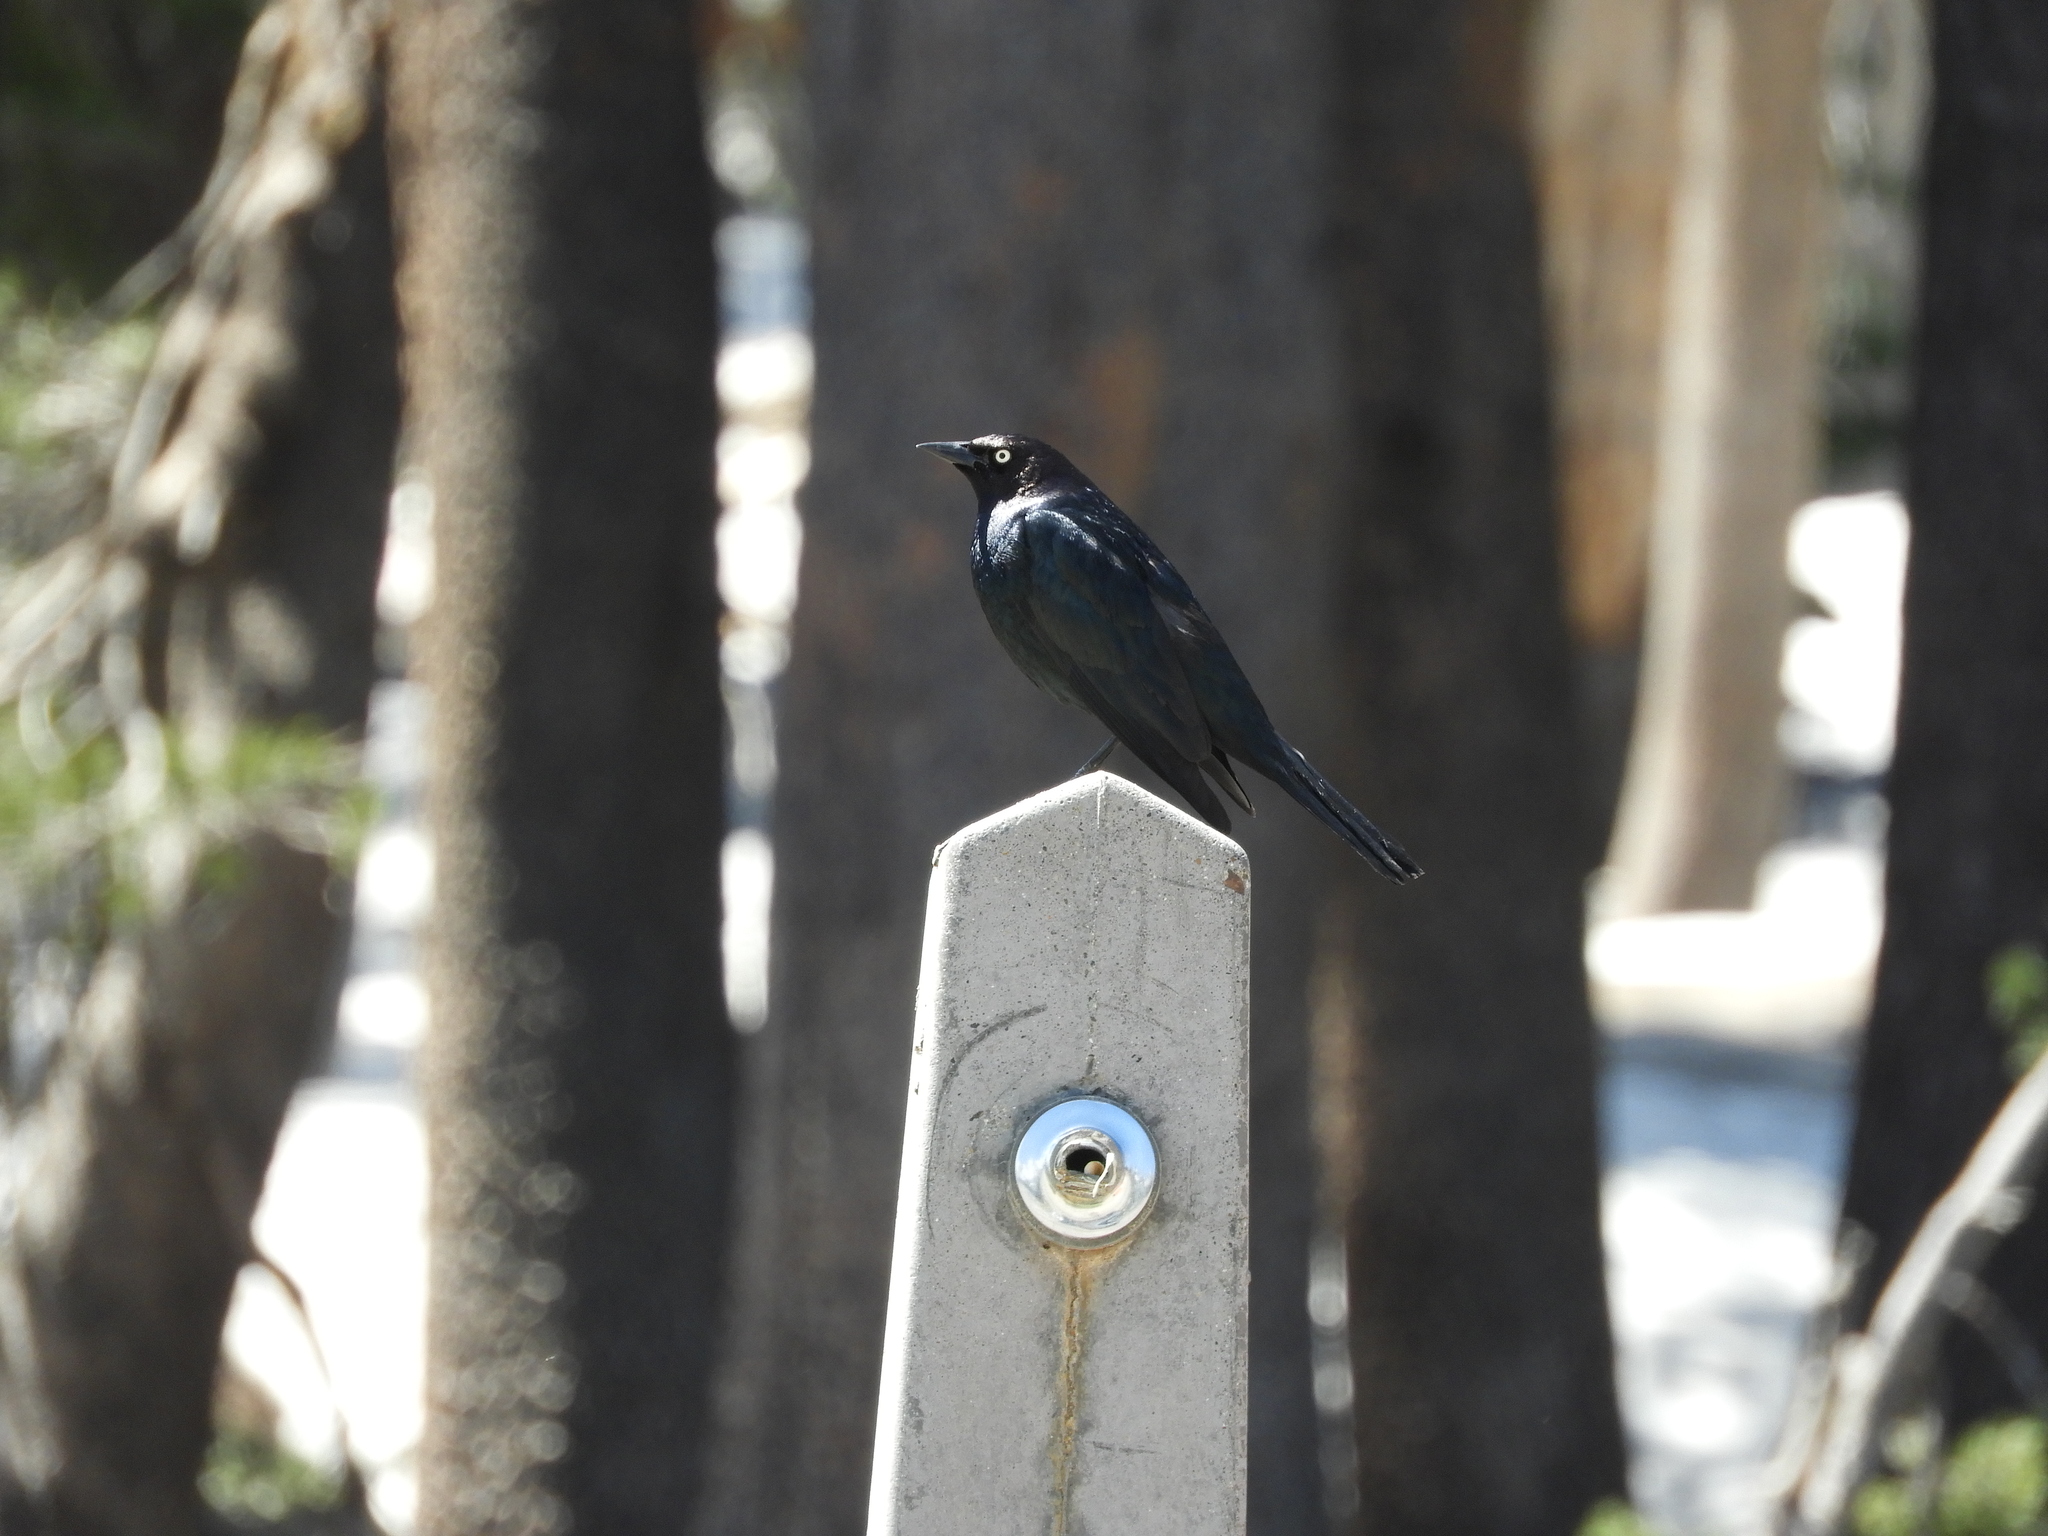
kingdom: Animalia
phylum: Chordata
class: Aves
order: Passeriformes
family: Icteridae
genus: Euphagus
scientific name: Euphagus cyanocephalus
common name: Brewer's blackbird
